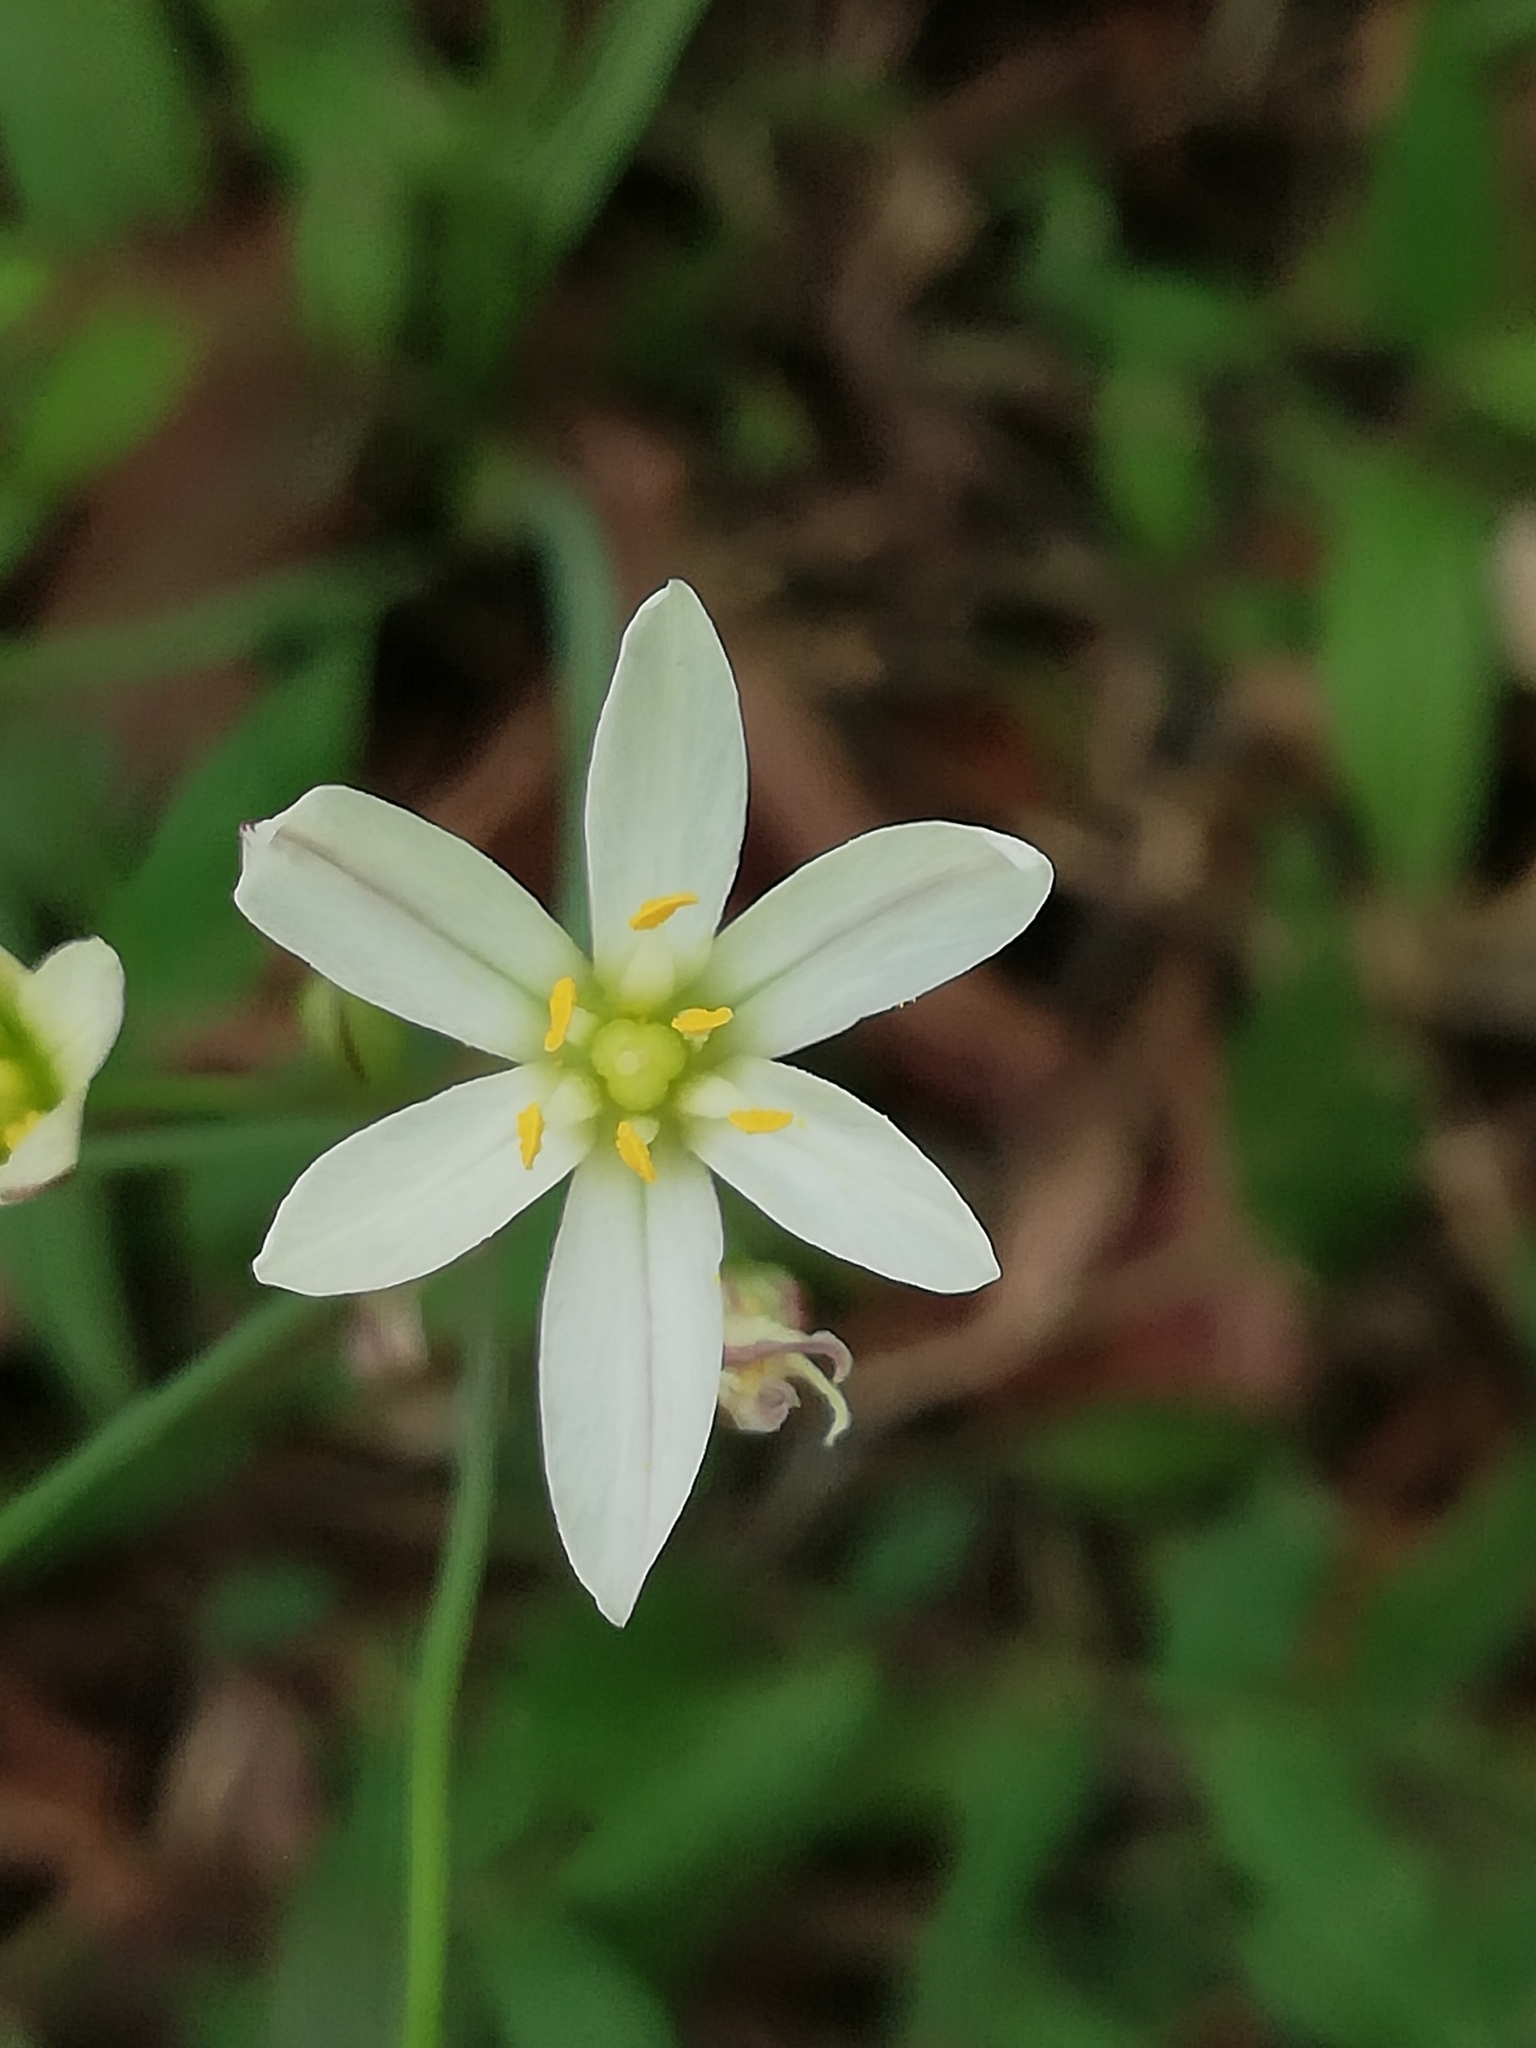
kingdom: Plantae
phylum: Tracheophyta
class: Liliopsida
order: Asparagales
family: Amaryllidaceae
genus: Nothoscordum
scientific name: Nothoscordum bivalve
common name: Crow-poison
